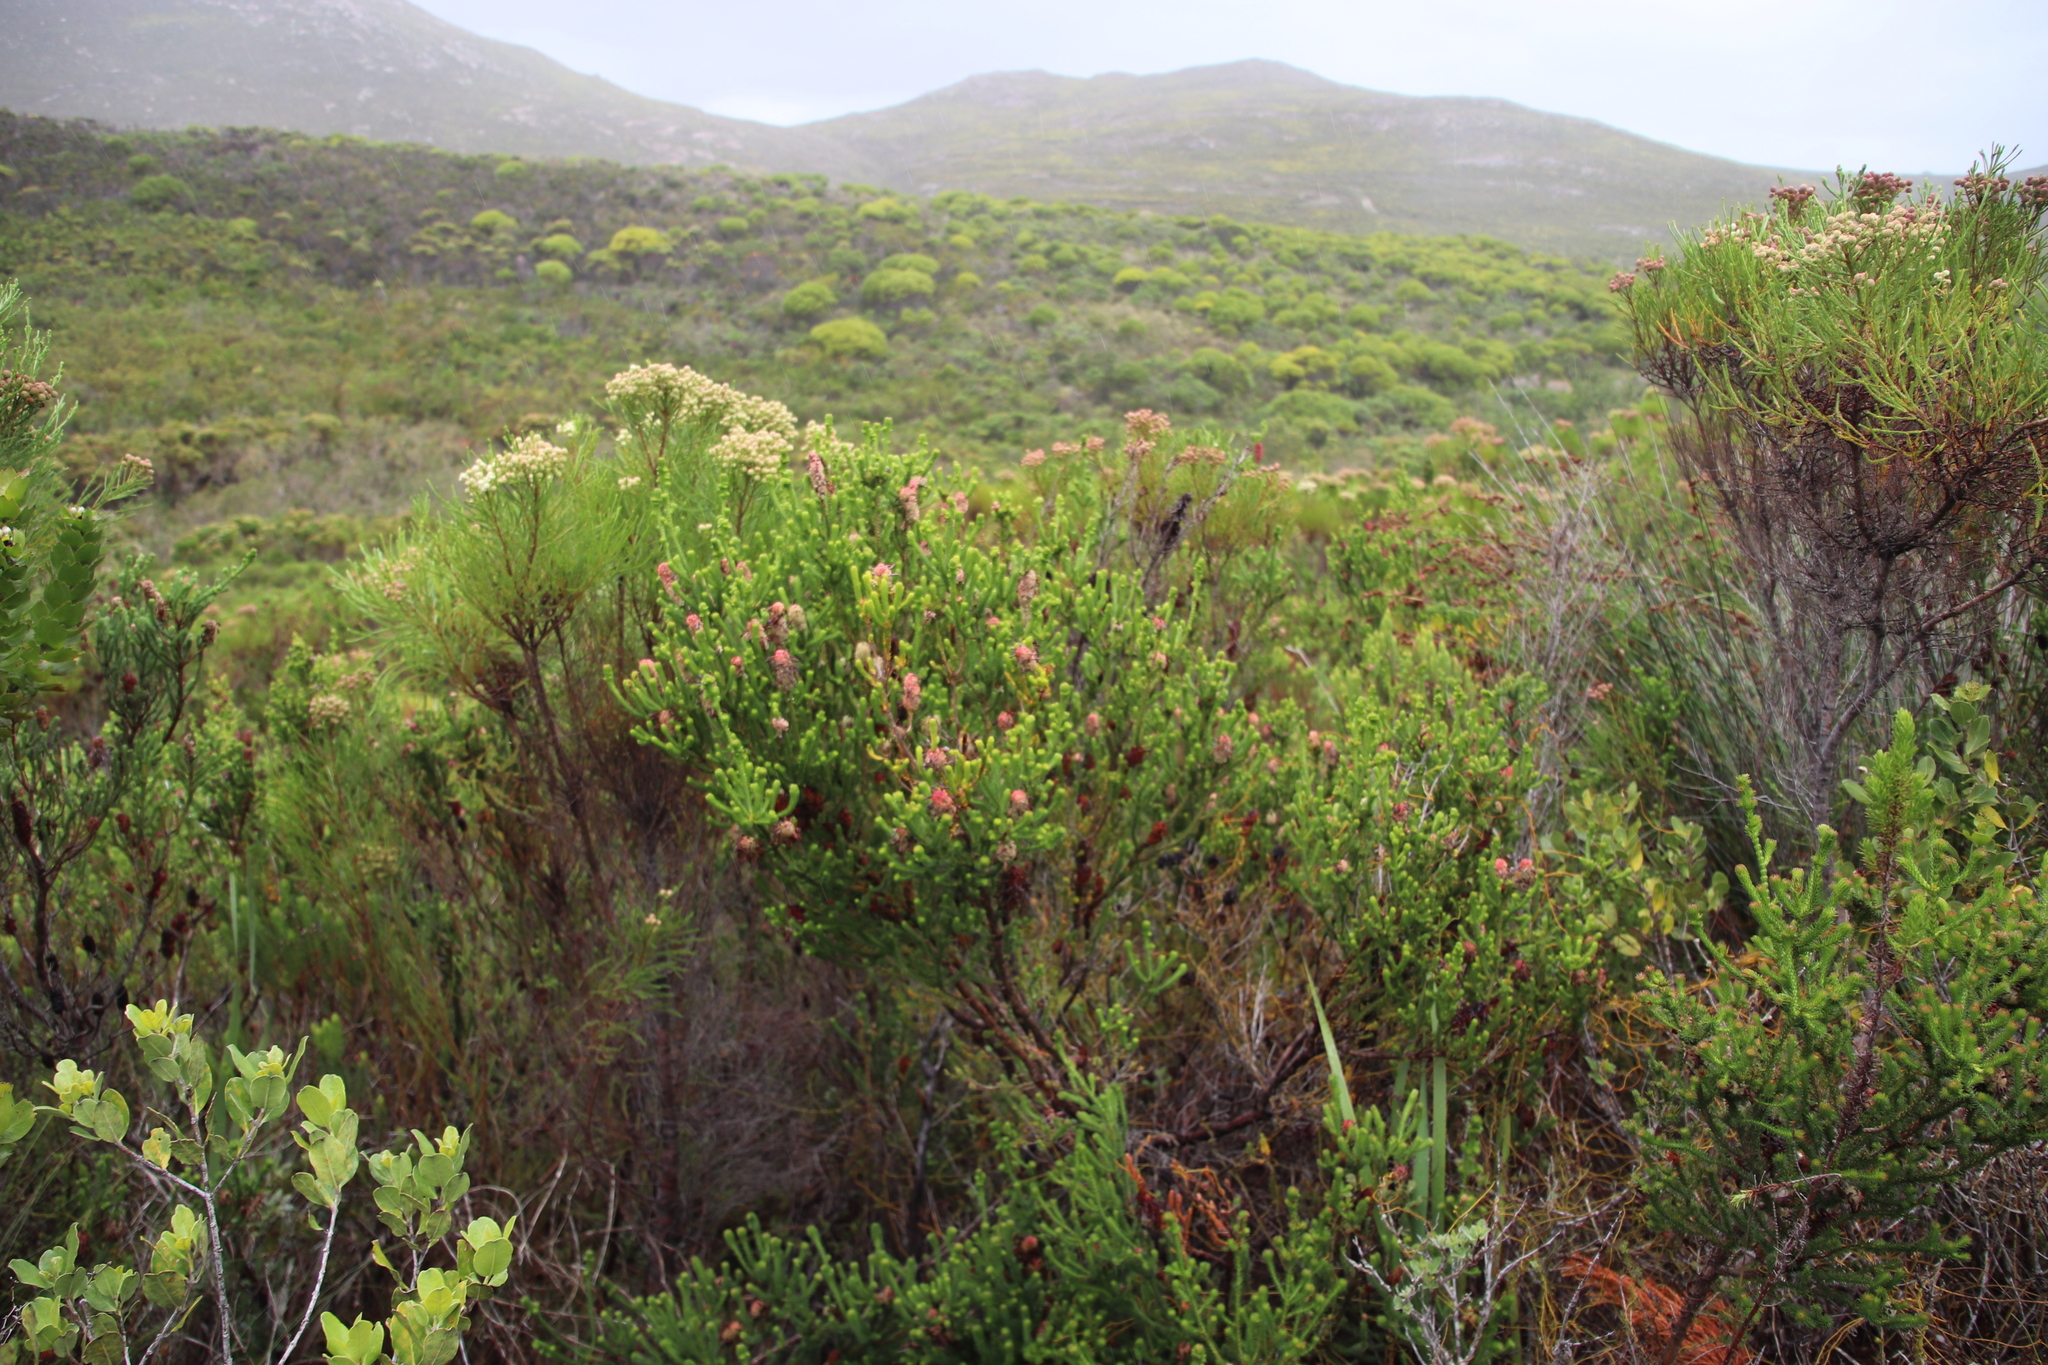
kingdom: Plantae
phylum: Tracheophyta
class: Magnoliopsida
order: Ericales
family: Ericaceae
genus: Erica
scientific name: Erica sessiliflora
